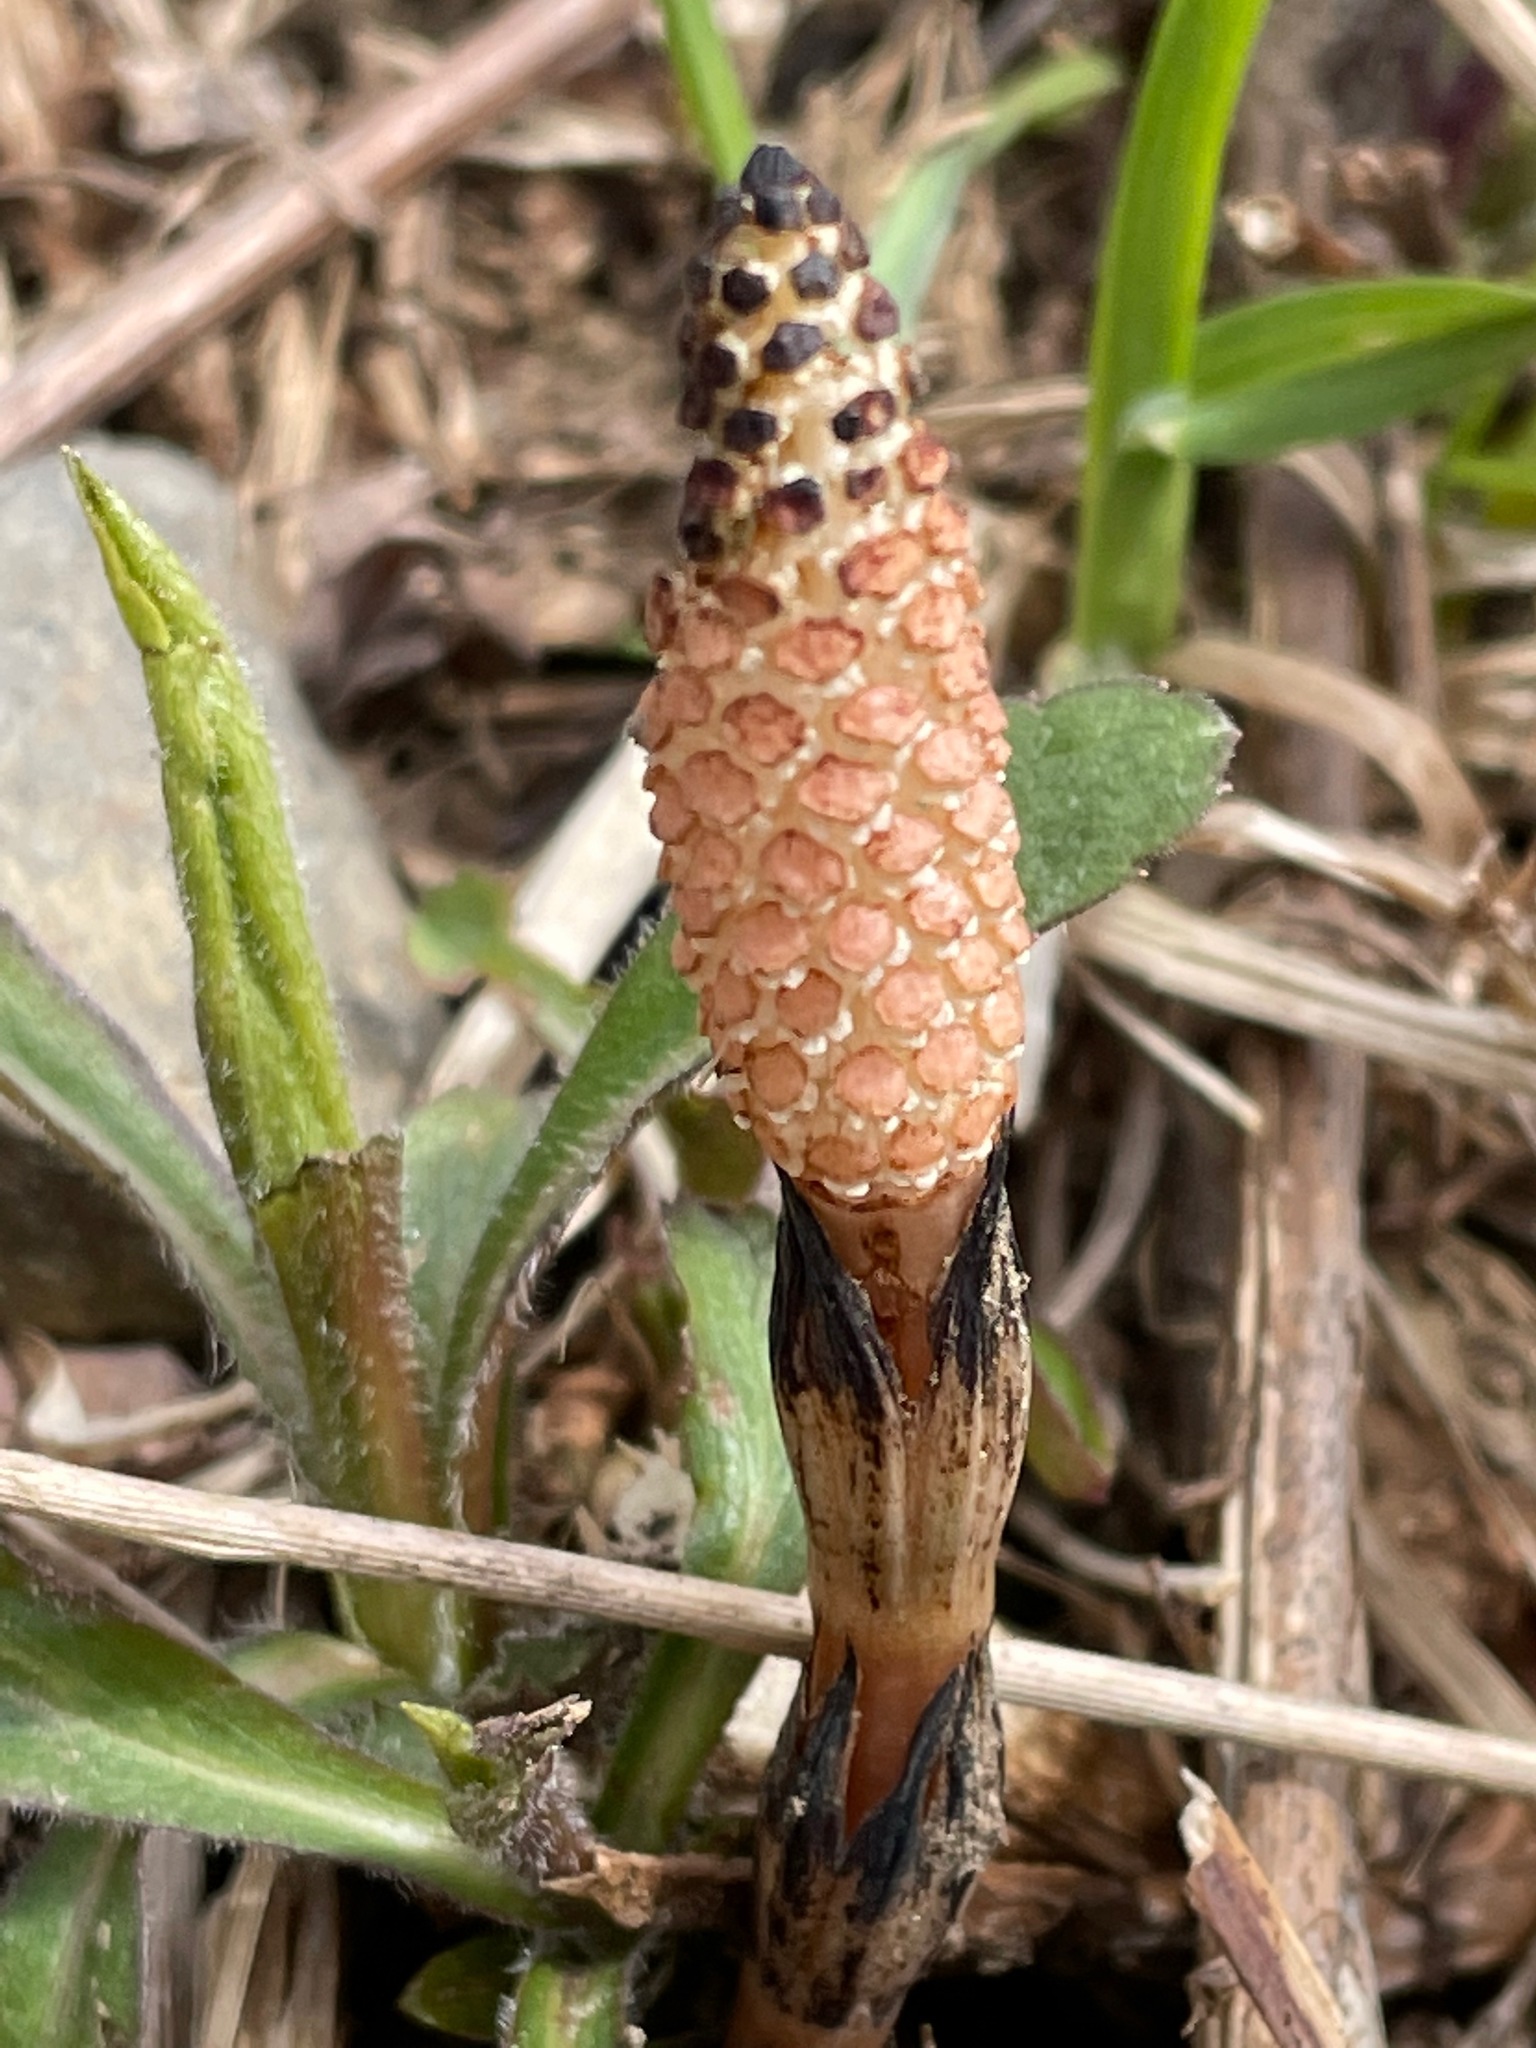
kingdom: Plantae
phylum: Tracheophyta
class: Polypodiopsida
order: Equisetales
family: Equisetaceae
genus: Equisetum
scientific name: Equisetum arvense
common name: Field horsetail
